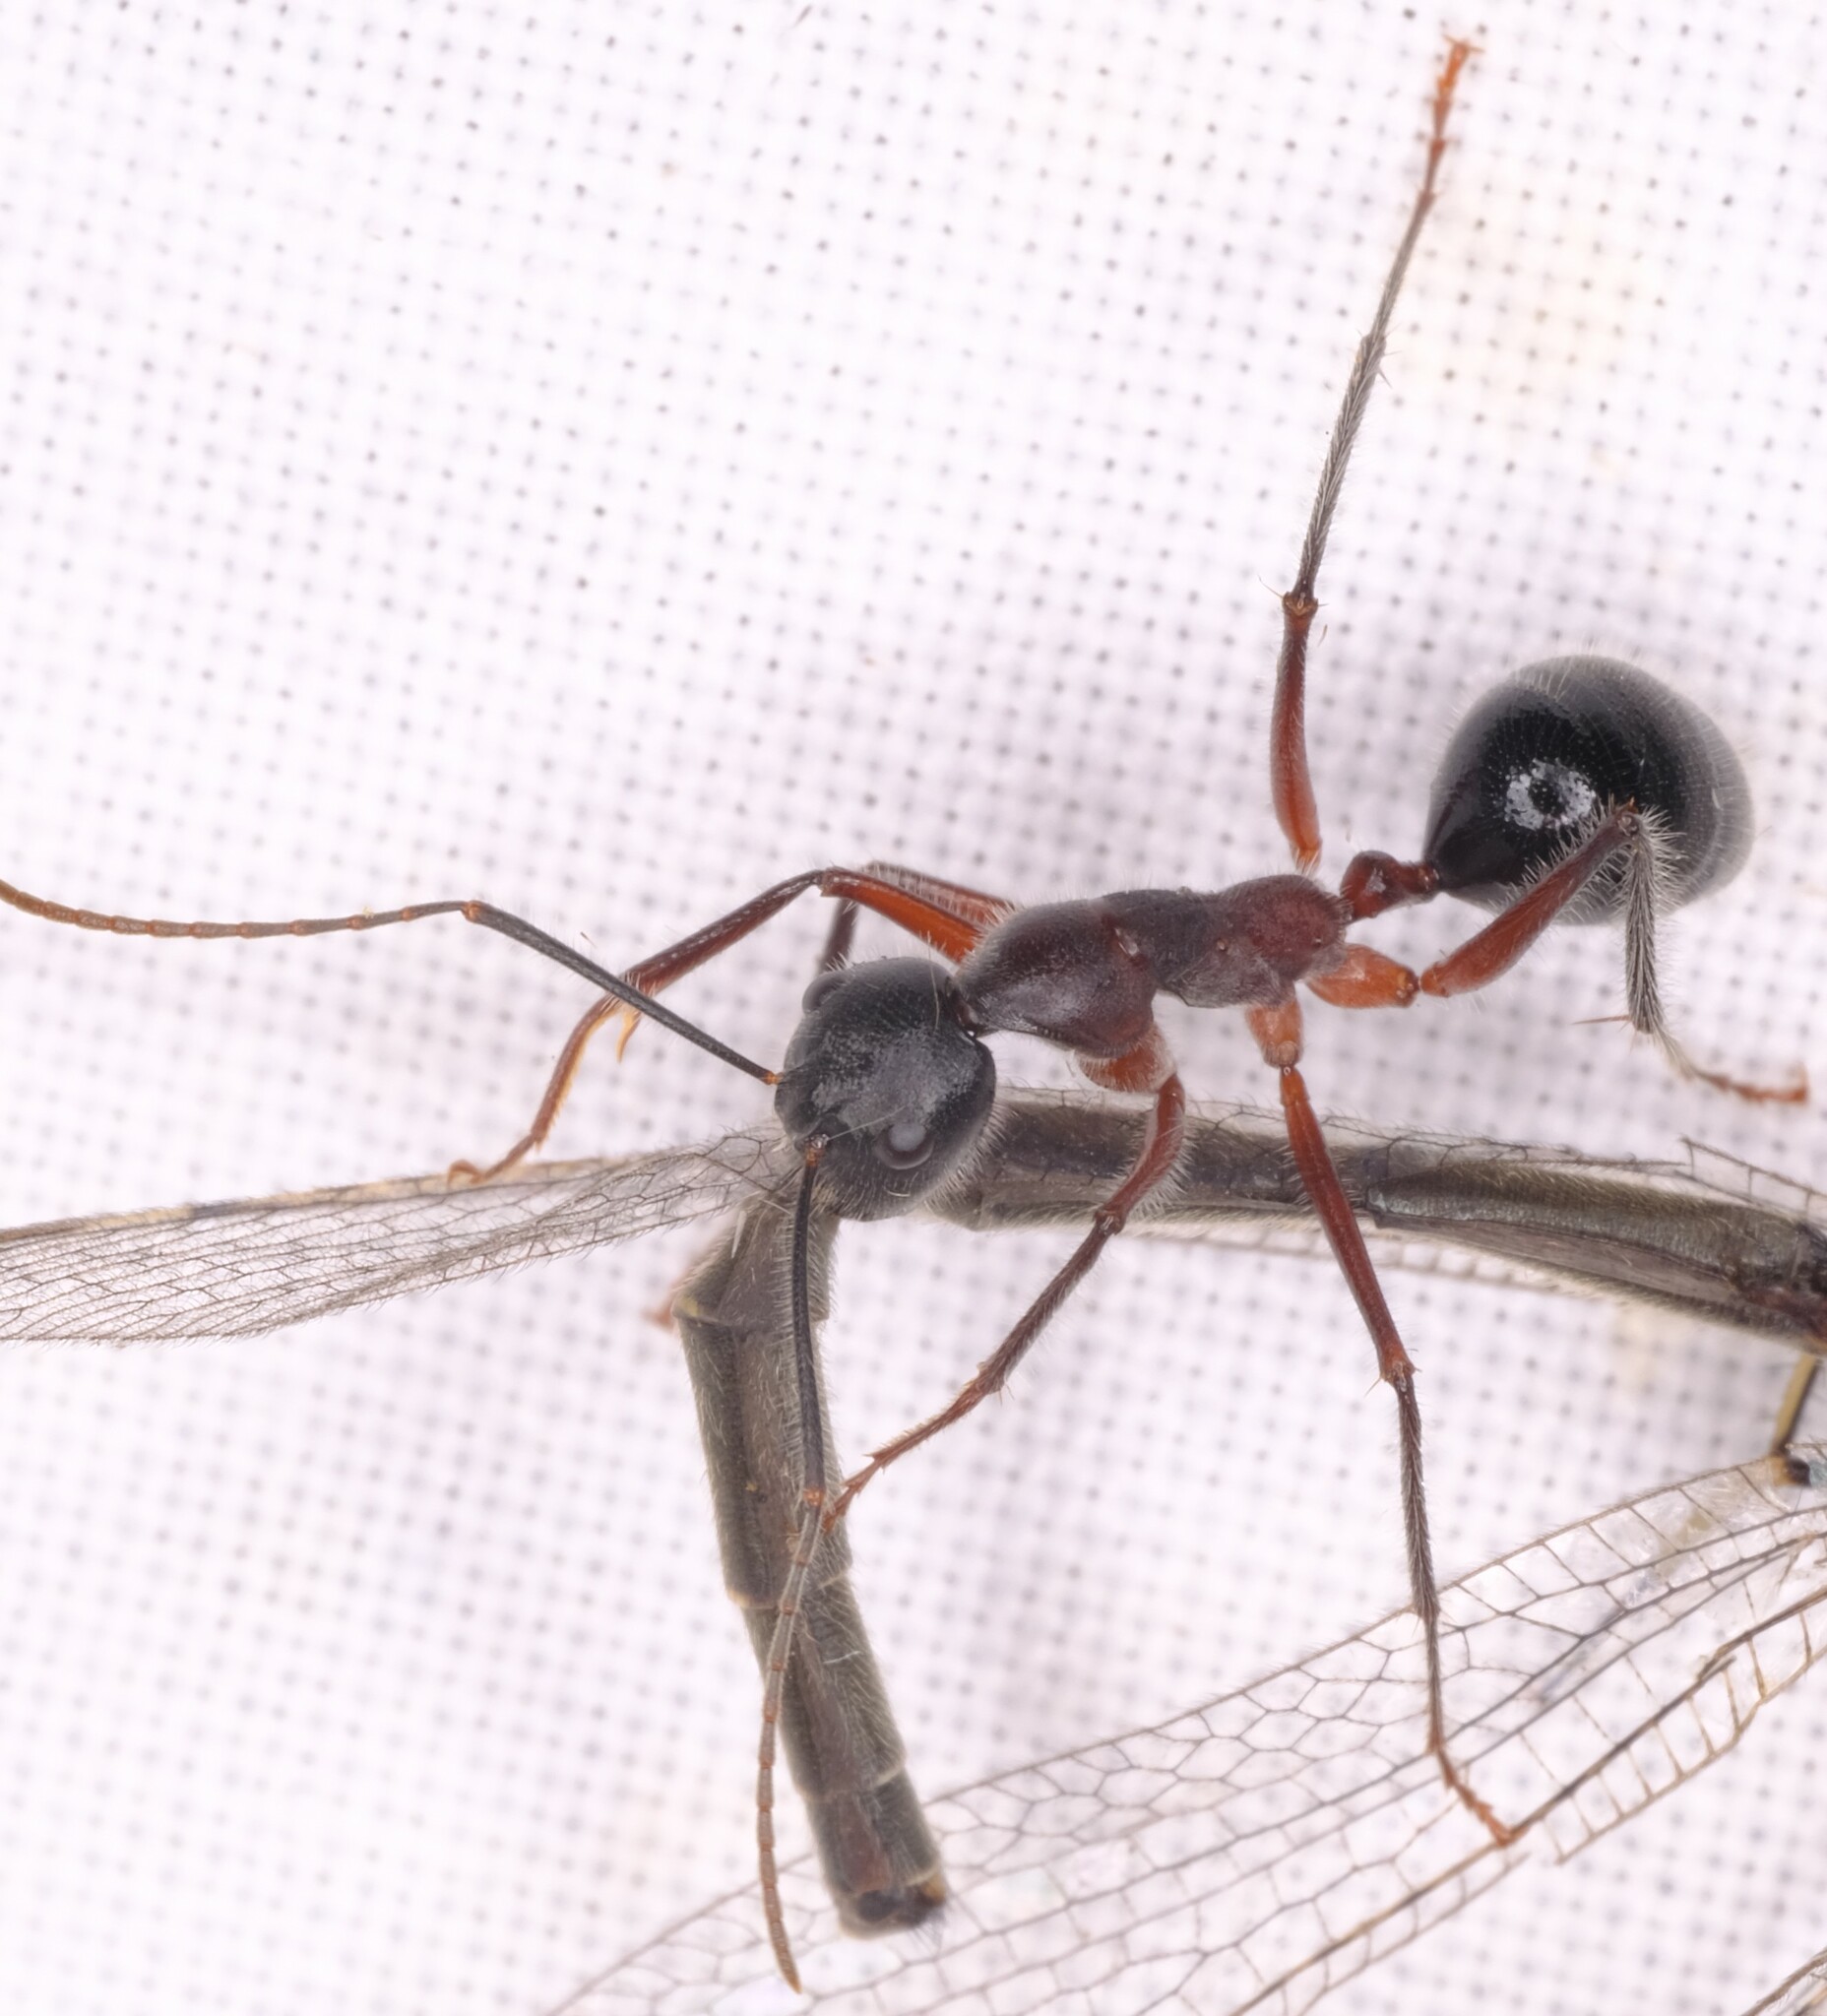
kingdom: Animalia
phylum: Arthropoda
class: Insecta
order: Hymenoptera
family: Formicidae
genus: Camponotus
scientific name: Camponotus intrepidus
